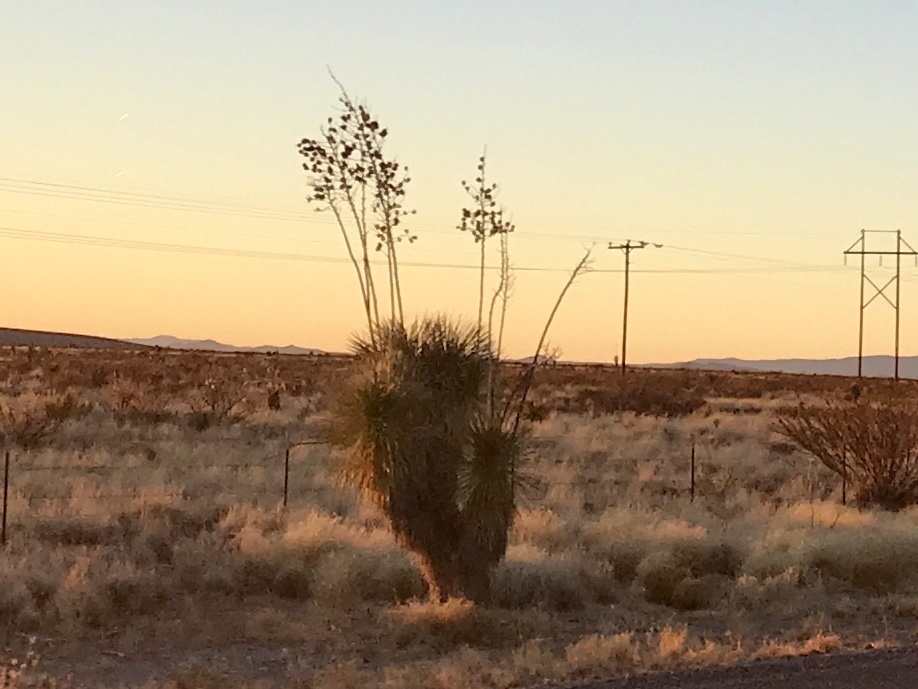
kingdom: Plantae
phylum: Tracheophyta
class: Liliopsida
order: Asparagales
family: Asparagaceae
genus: Yucca
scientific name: Yucca elata
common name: Palmella
